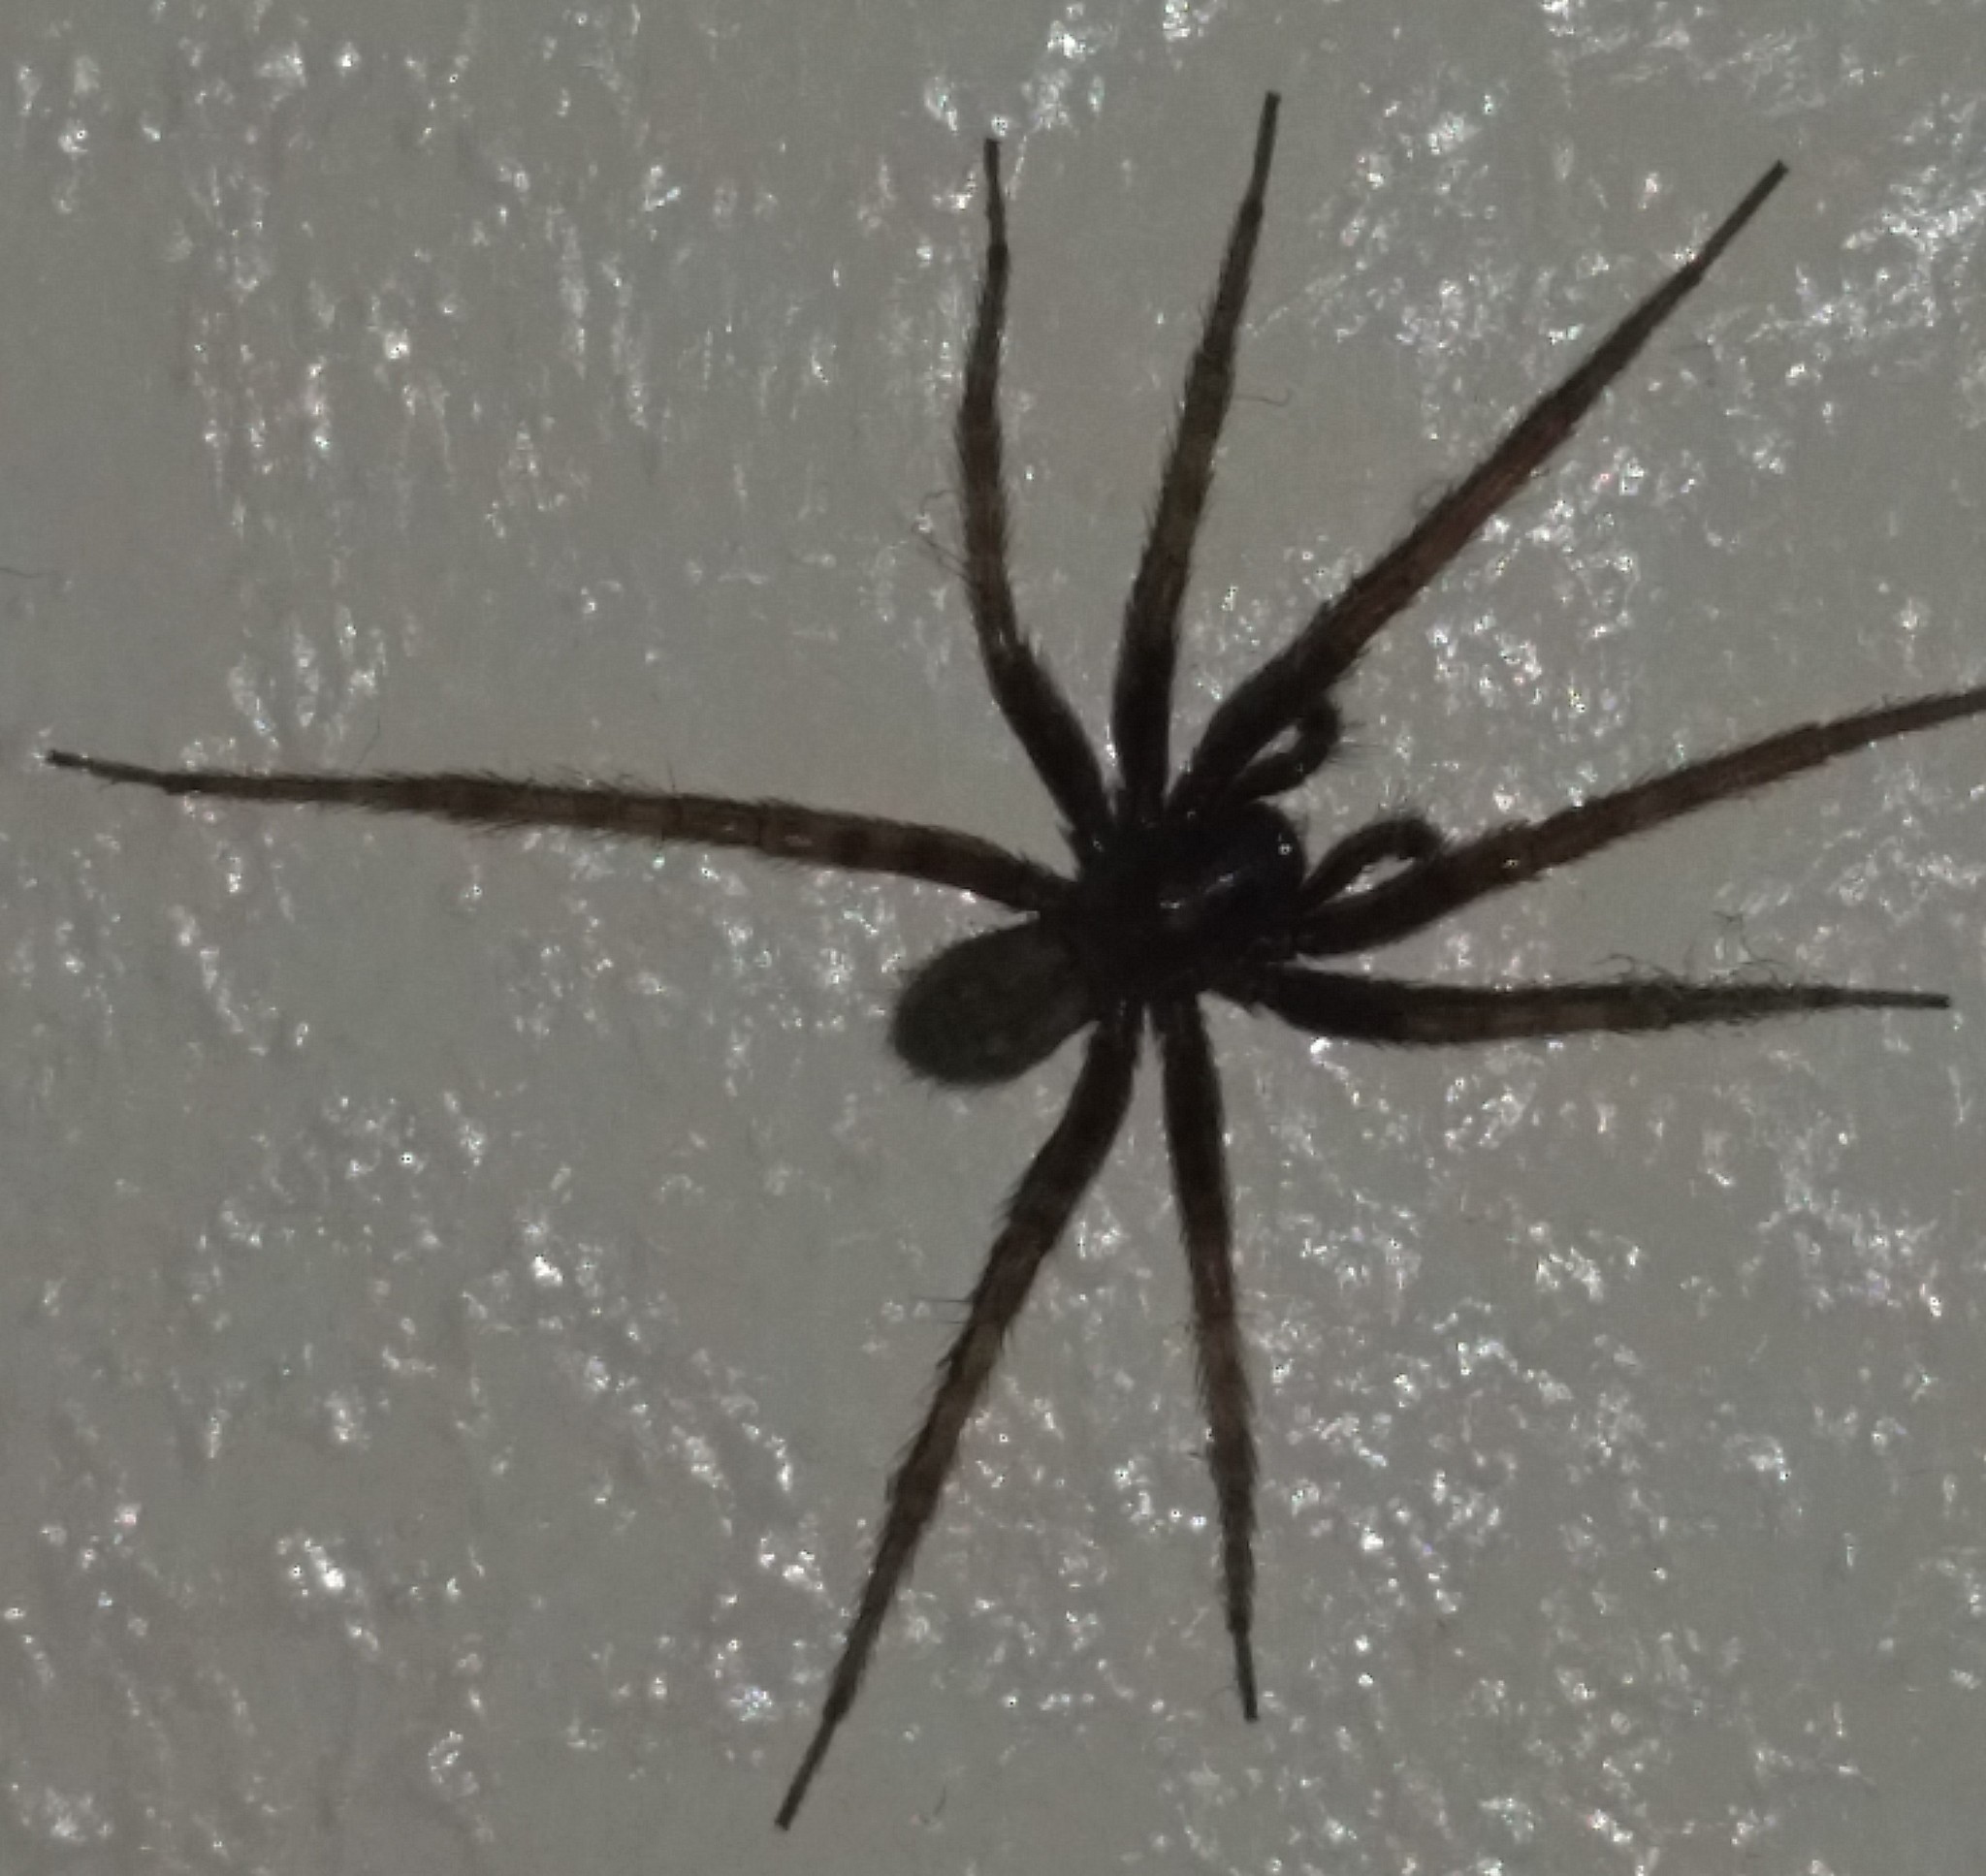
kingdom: Animalia
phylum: Arthropoda
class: Arachnida
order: Araneae
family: Agelenidae
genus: Tegenaria
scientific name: Tegenaria domestica
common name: Barn funnel weaver
